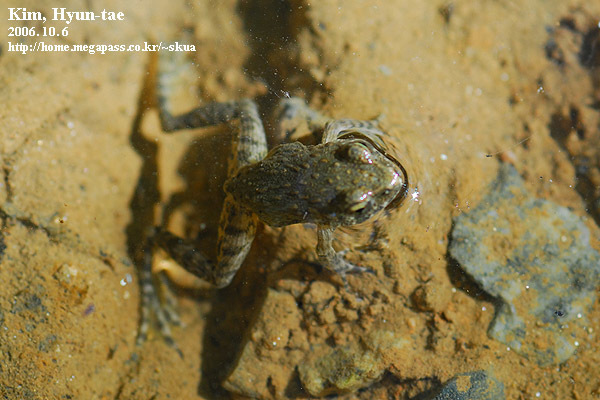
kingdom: Animalia
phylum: Chordata
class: Amphibia
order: Anura
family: Ranidae
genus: Glandirana
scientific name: Glandirana emeljanovi
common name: Northeast china rough-skinned frog
